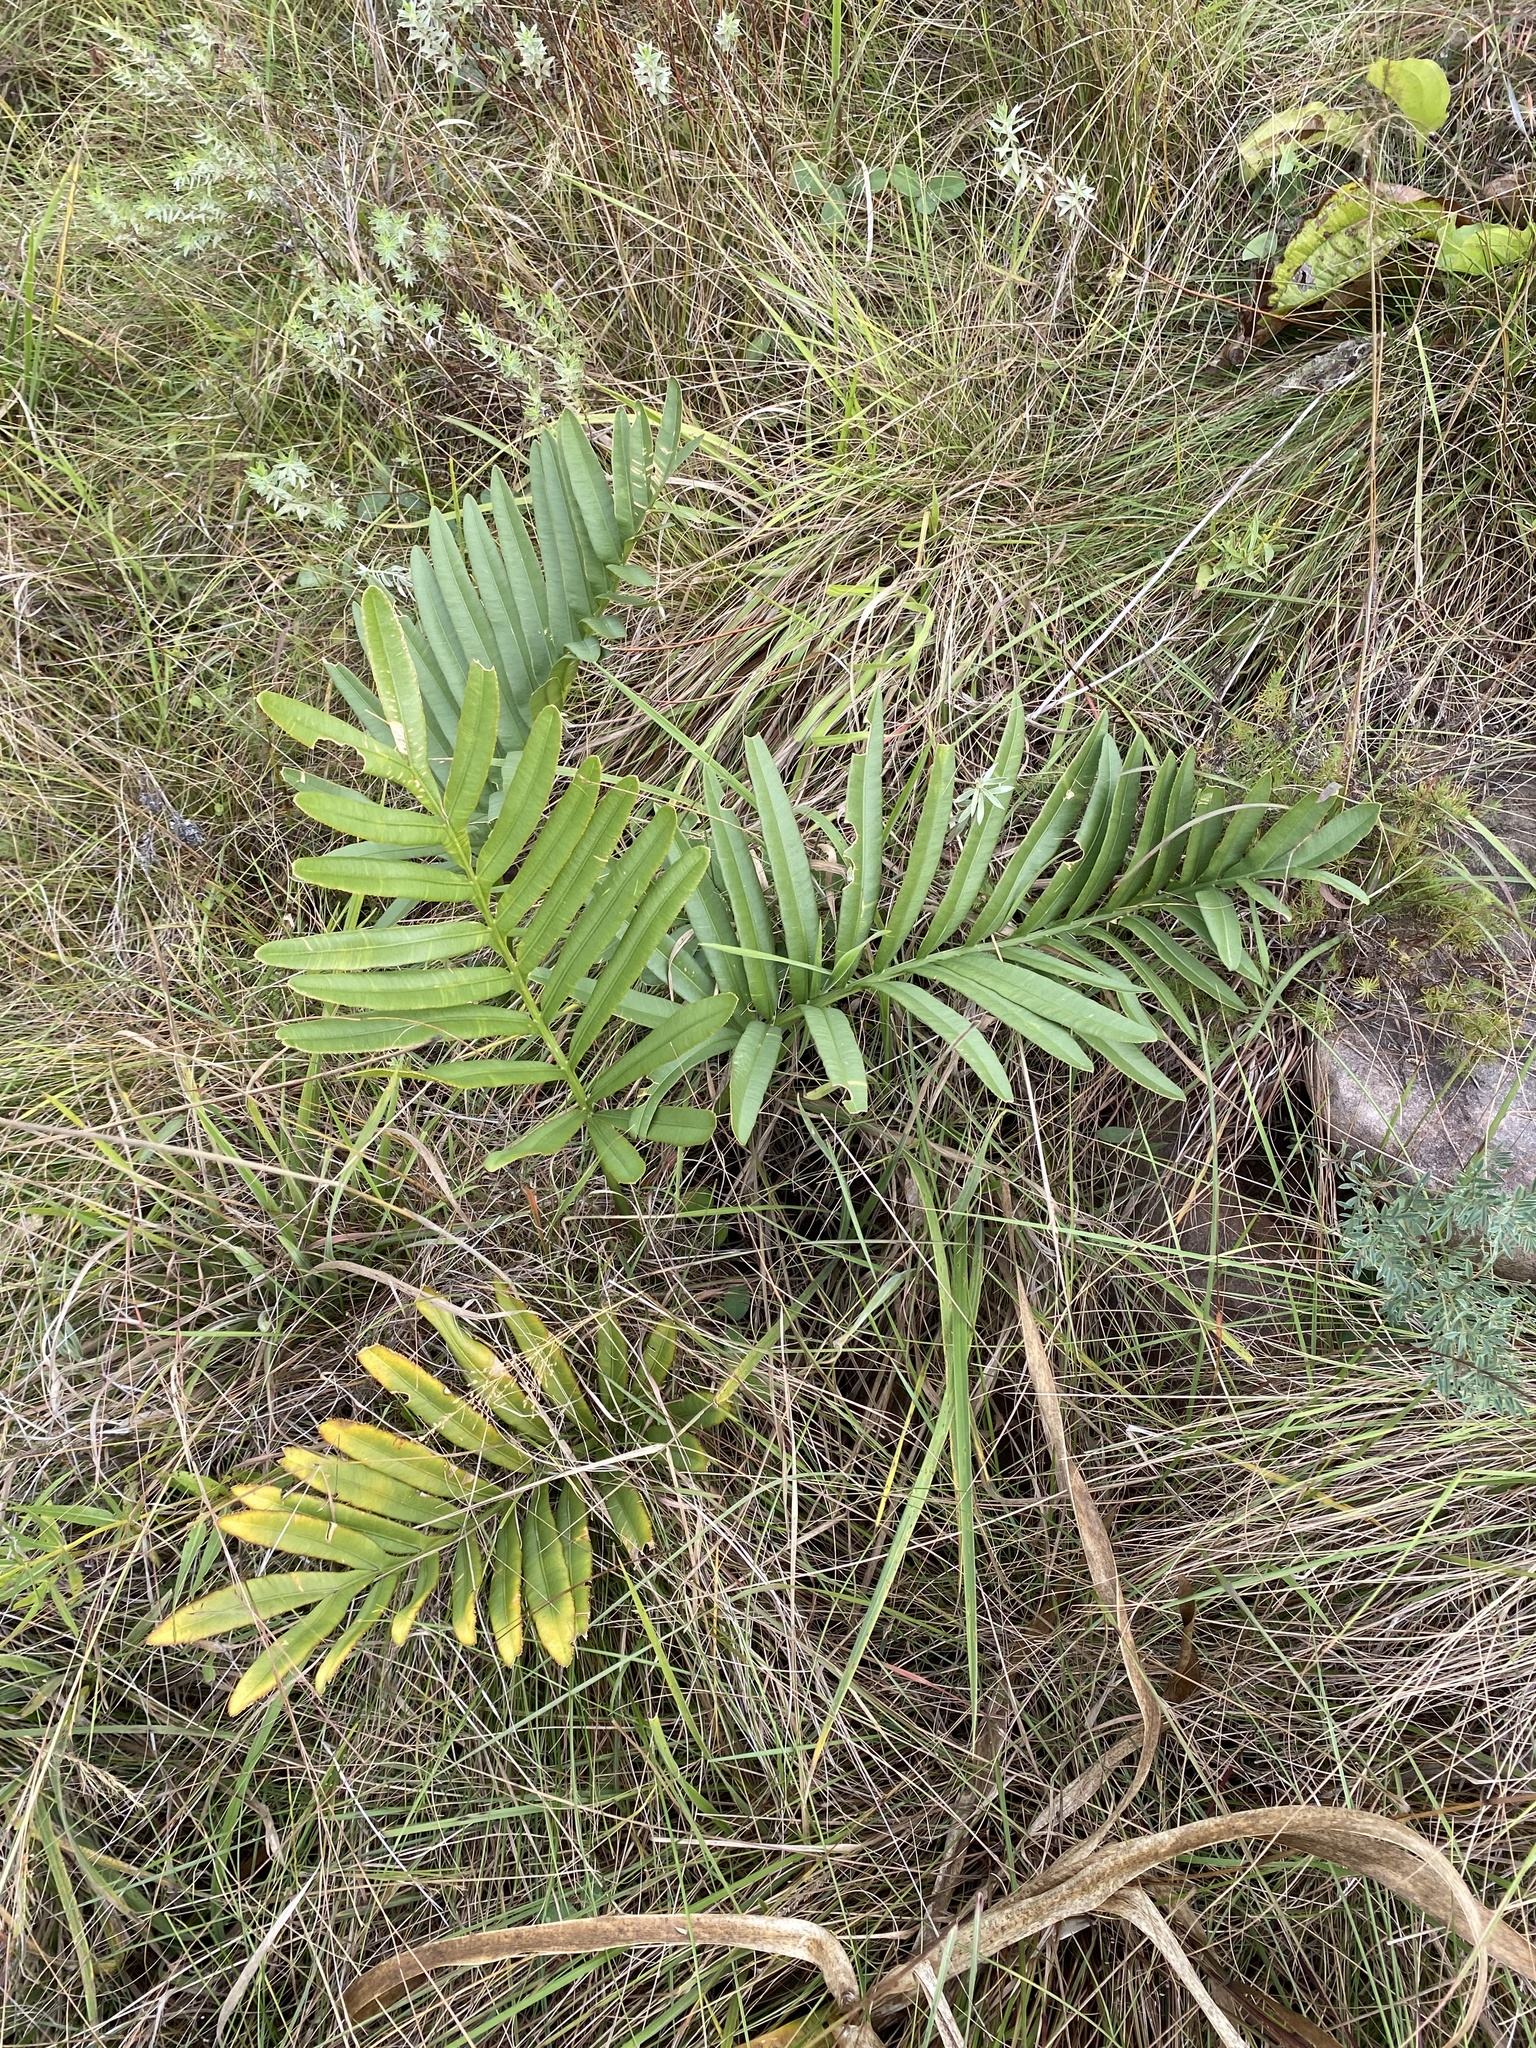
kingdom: Plantae
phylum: Tracheophyta
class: Cycadopsida
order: Cycadales
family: Zamiaceae
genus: Stangeria
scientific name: Stangeria eriopus
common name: Natal grass cycad
